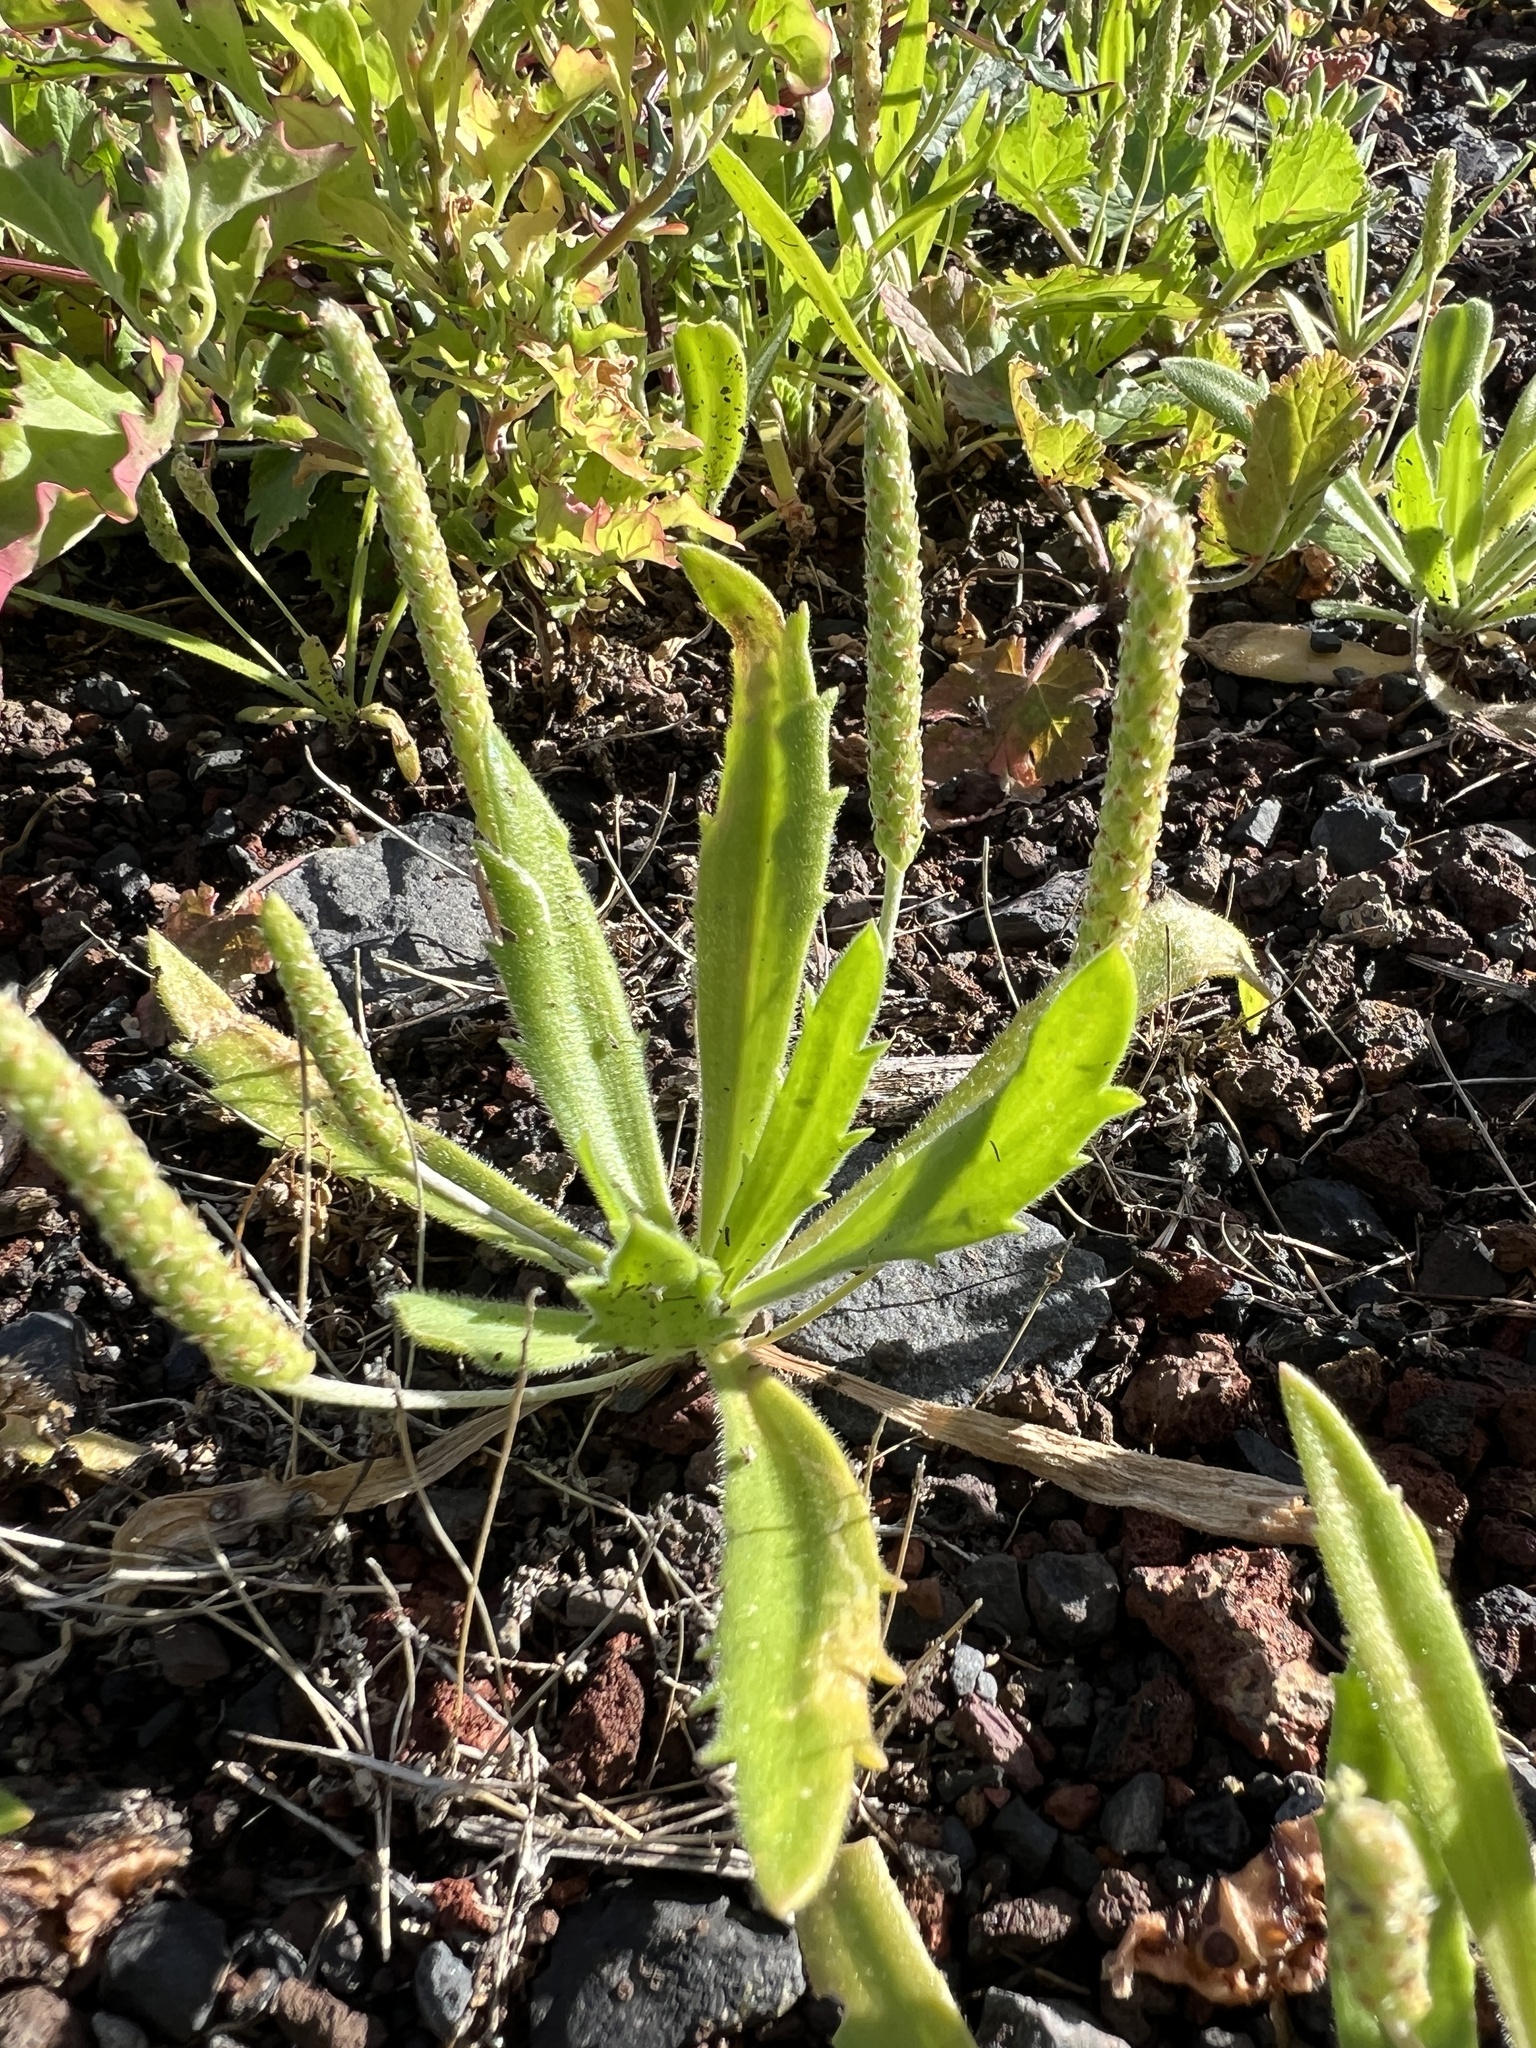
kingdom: Plantae
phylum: Tracheophyta
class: Magnoliopsida
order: Lamiales
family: Plantaginaceae
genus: Plantago
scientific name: Plantago coronopus
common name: Buck's-horn plantain
